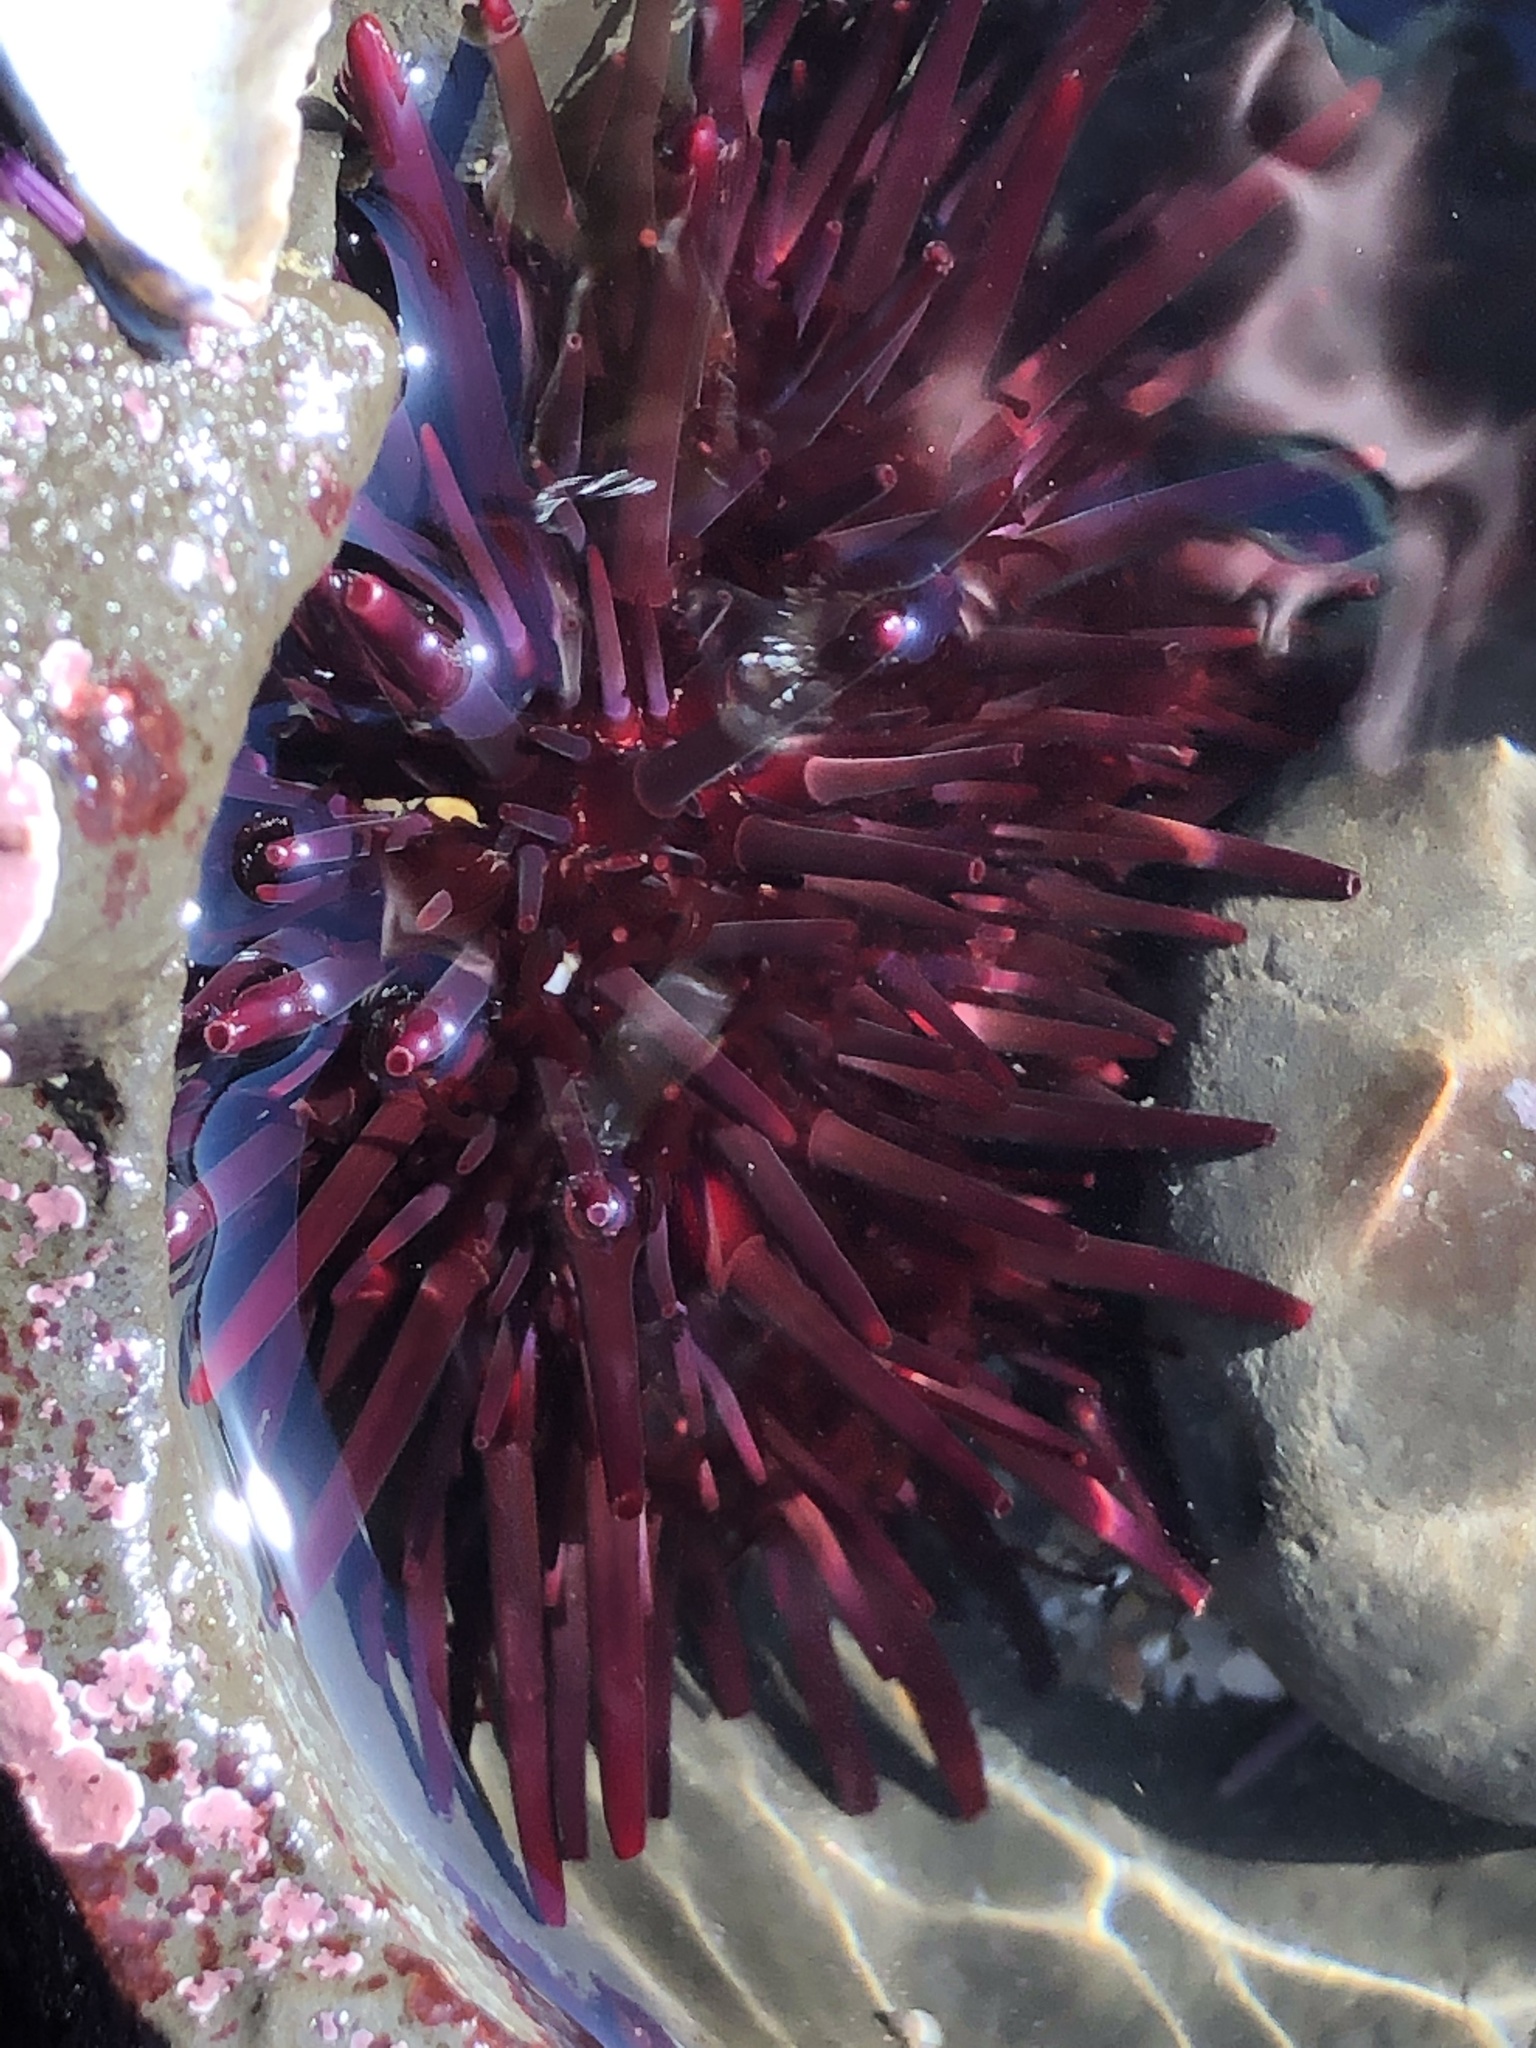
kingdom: Animalia
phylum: Echinodermata
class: Echinoidea
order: Camarodonta
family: Strongylocentrotidae
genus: Mesocentrotus
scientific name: Mesocentrotus franciscanus
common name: Red sea urchin
